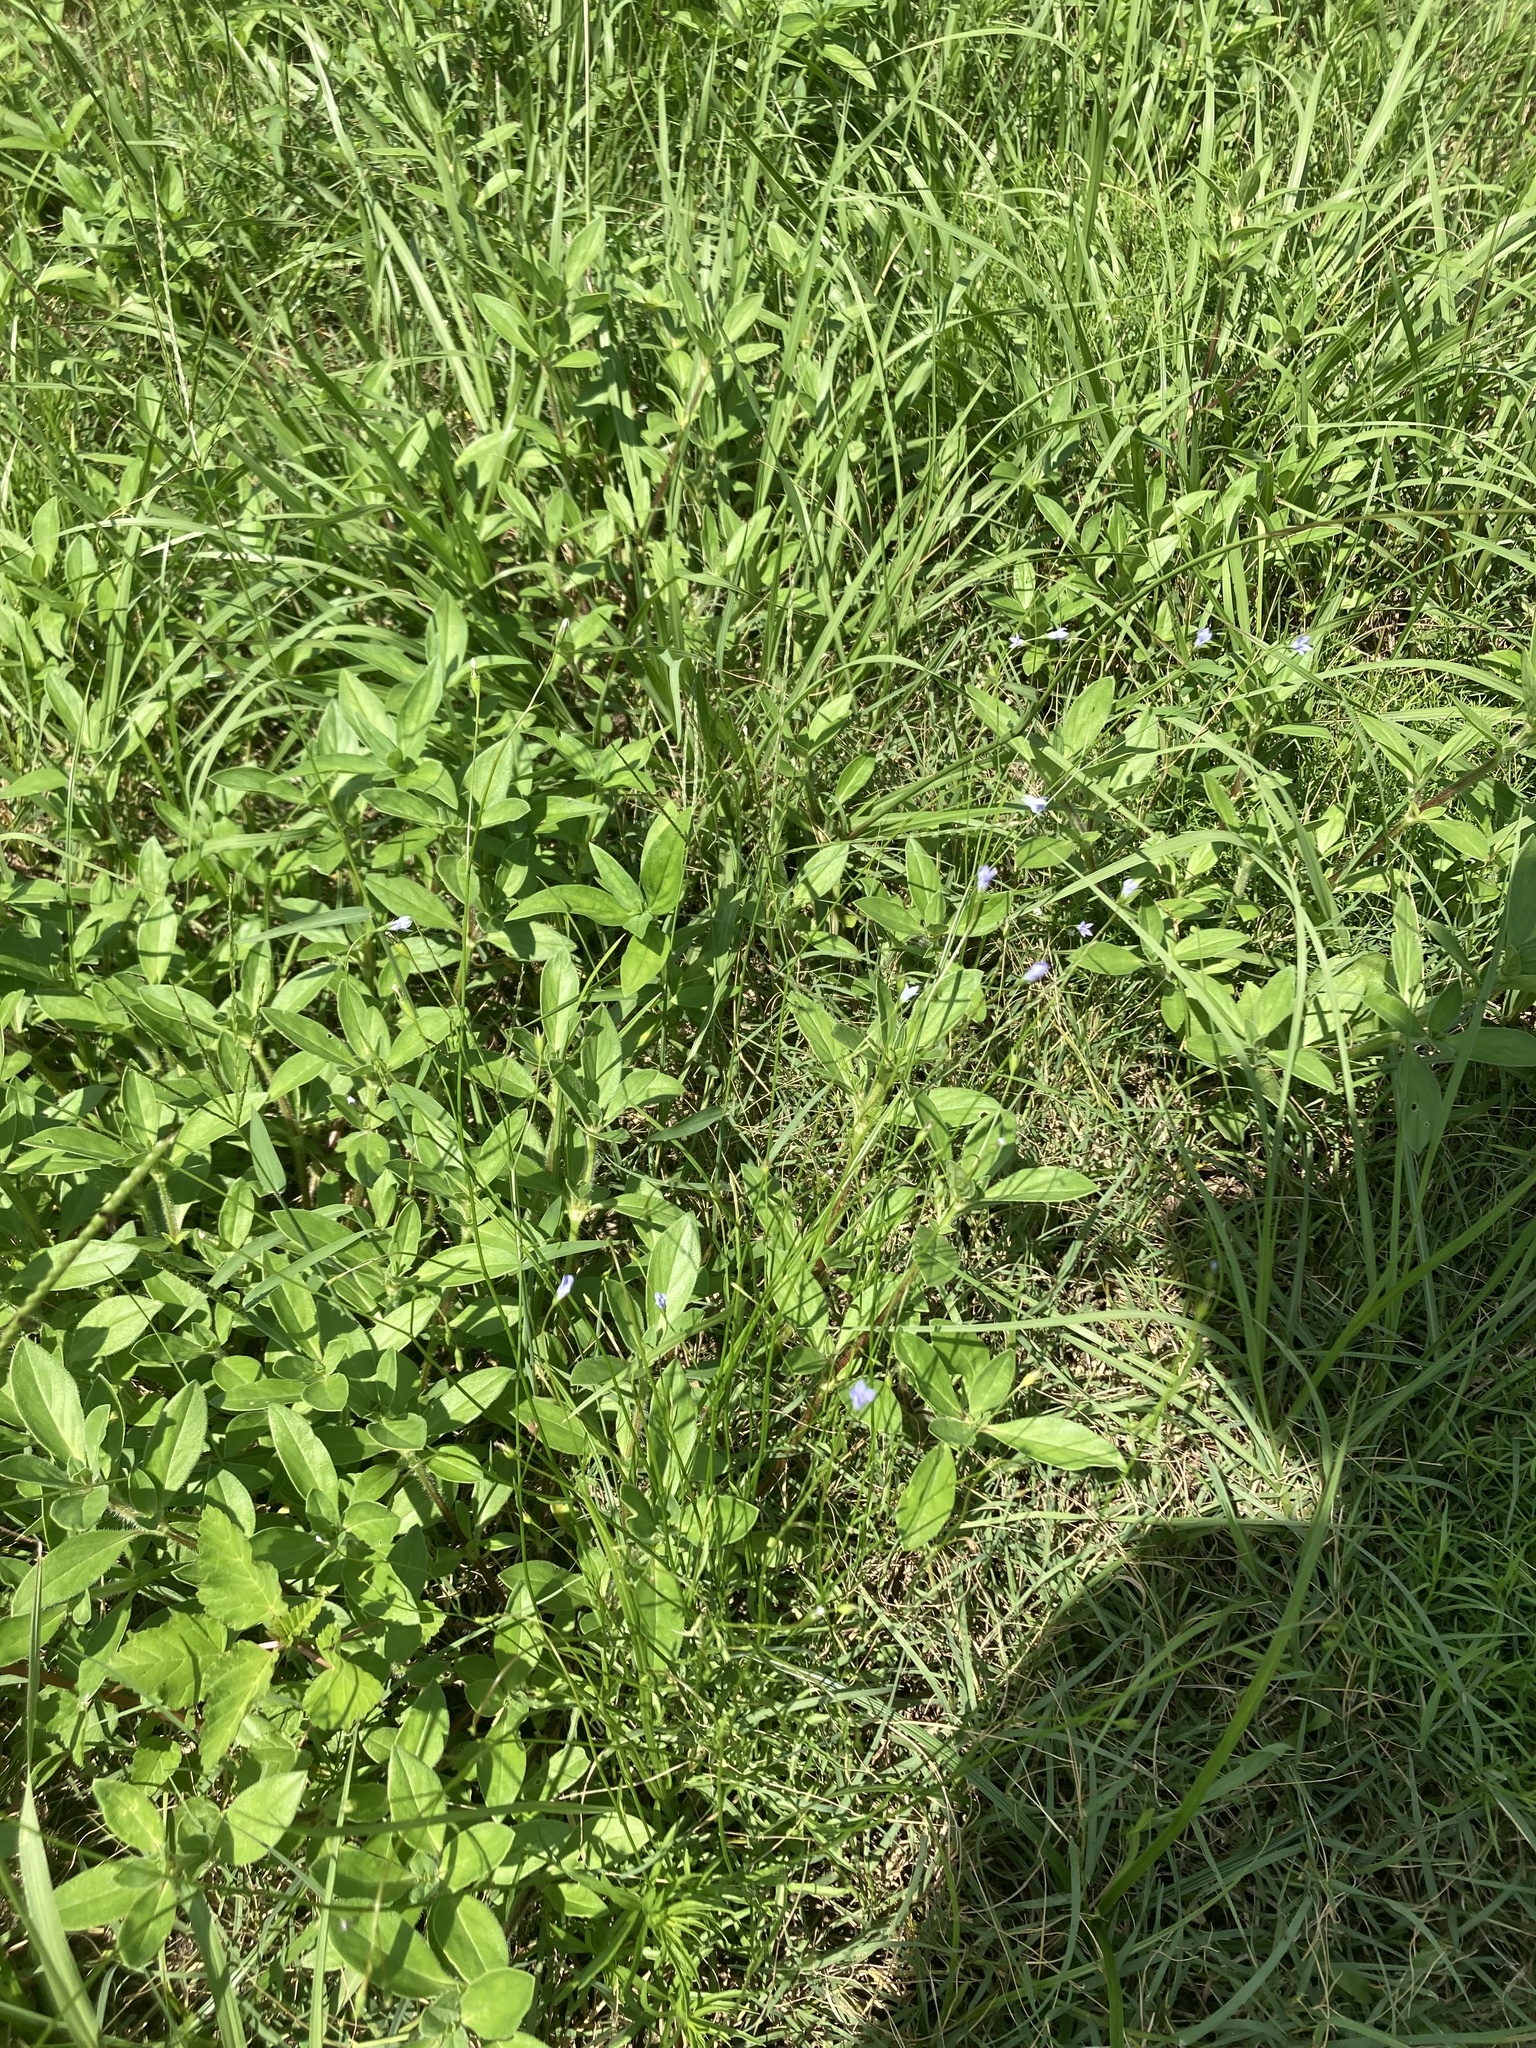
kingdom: Plantae
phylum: Tracheophyta
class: Magnoliopsida
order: Asterales
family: Campanulaceae
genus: Wahlenbergia
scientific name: Wahlenbergia marginata
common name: Southern rockbell
